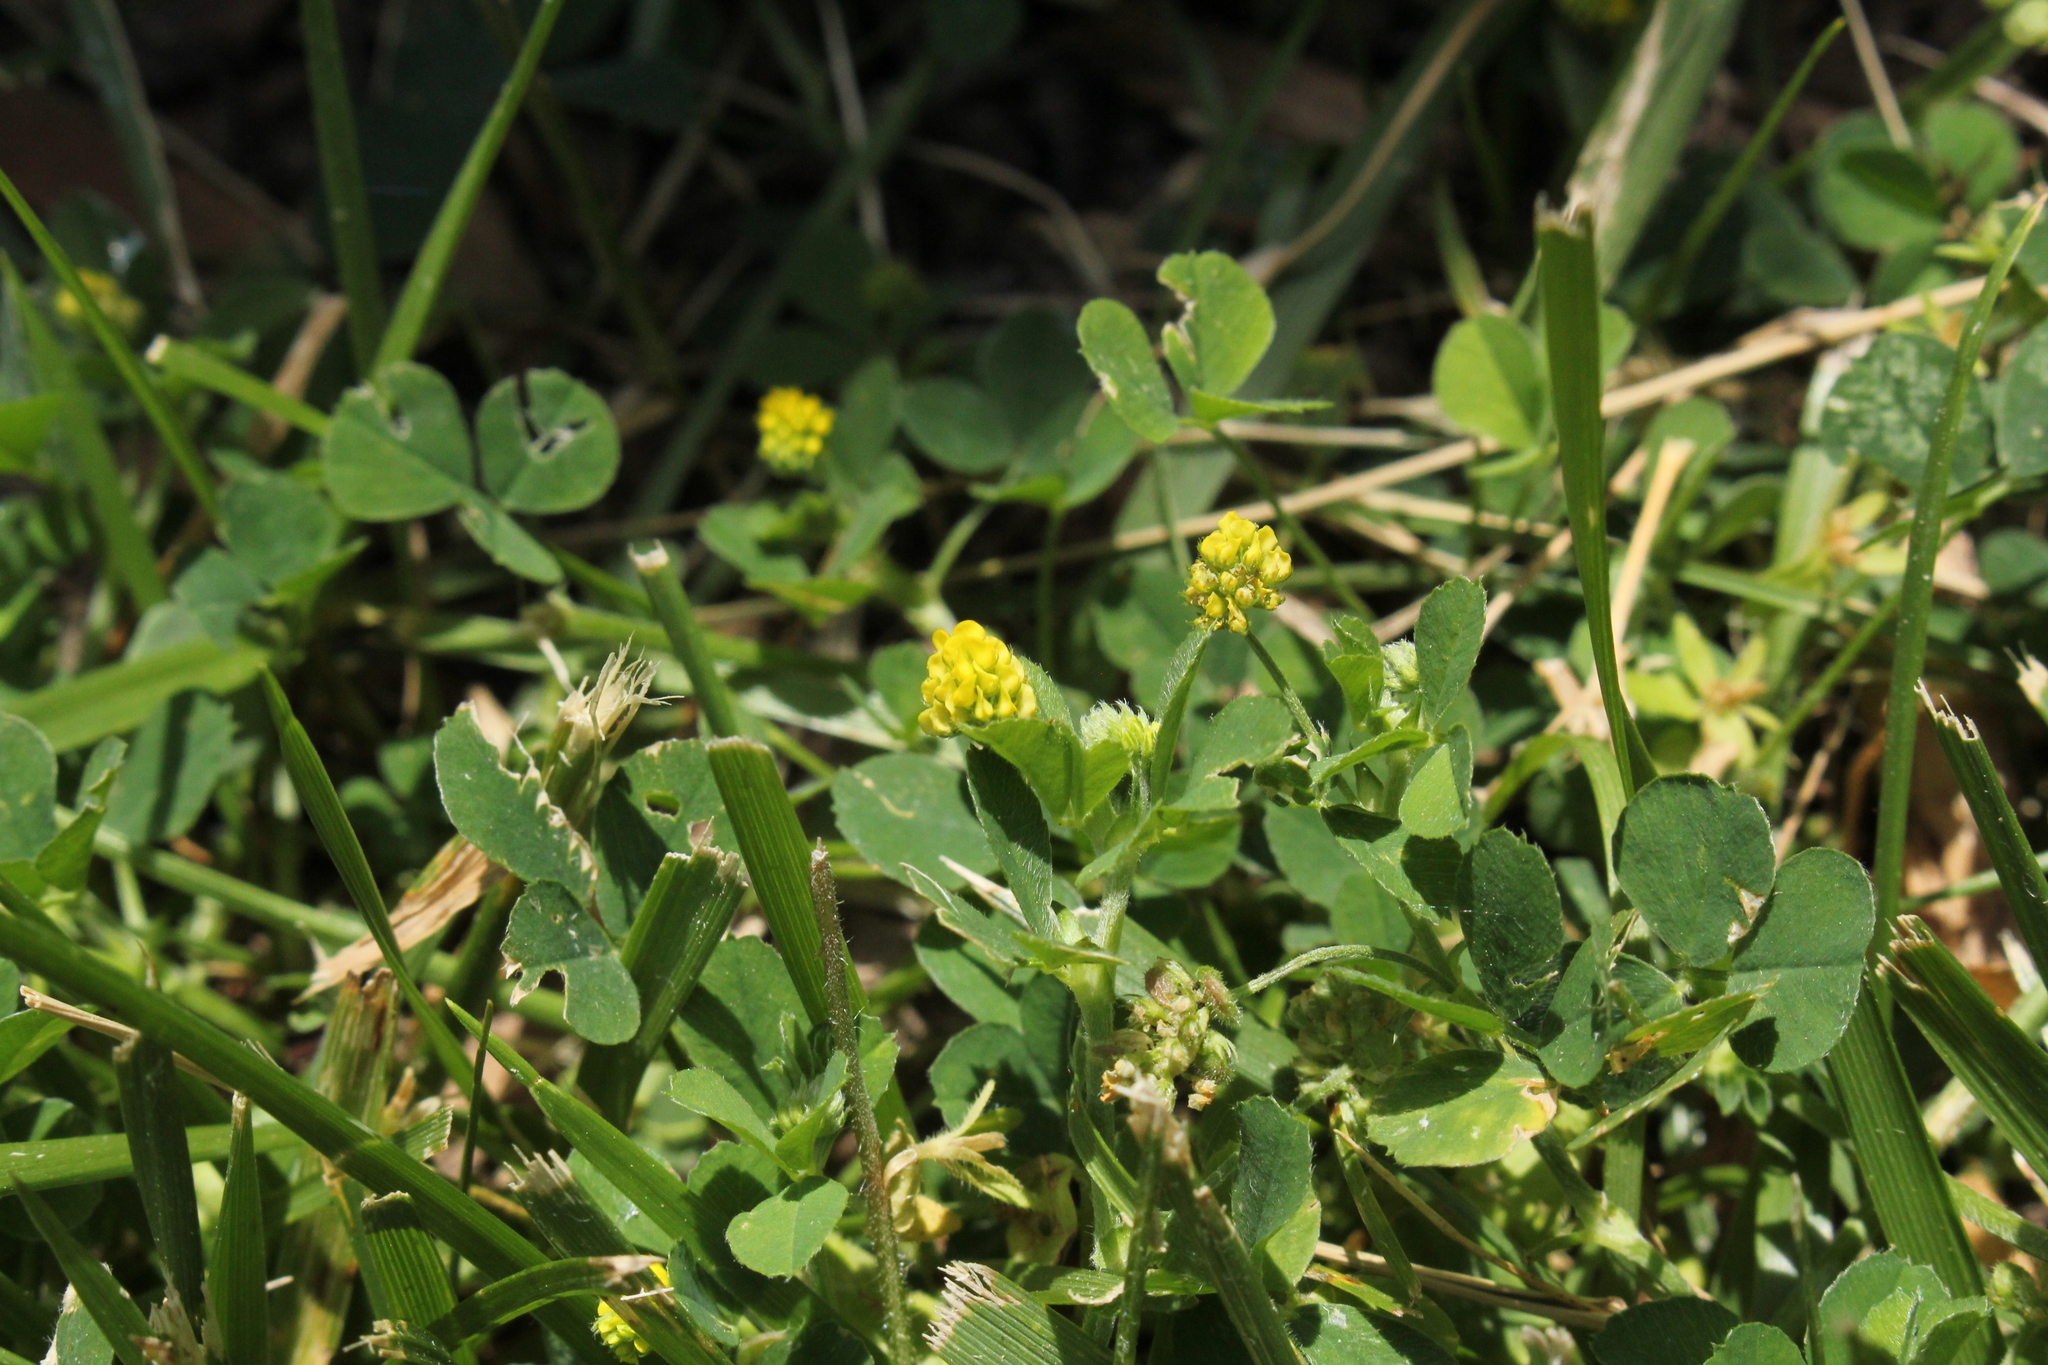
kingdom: Plantae
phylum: Tracheophyta
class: Magnoliopsida
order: Fabales
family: Fabaceae
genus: Medicago
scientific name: Medicago lupulina
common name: Black medick
